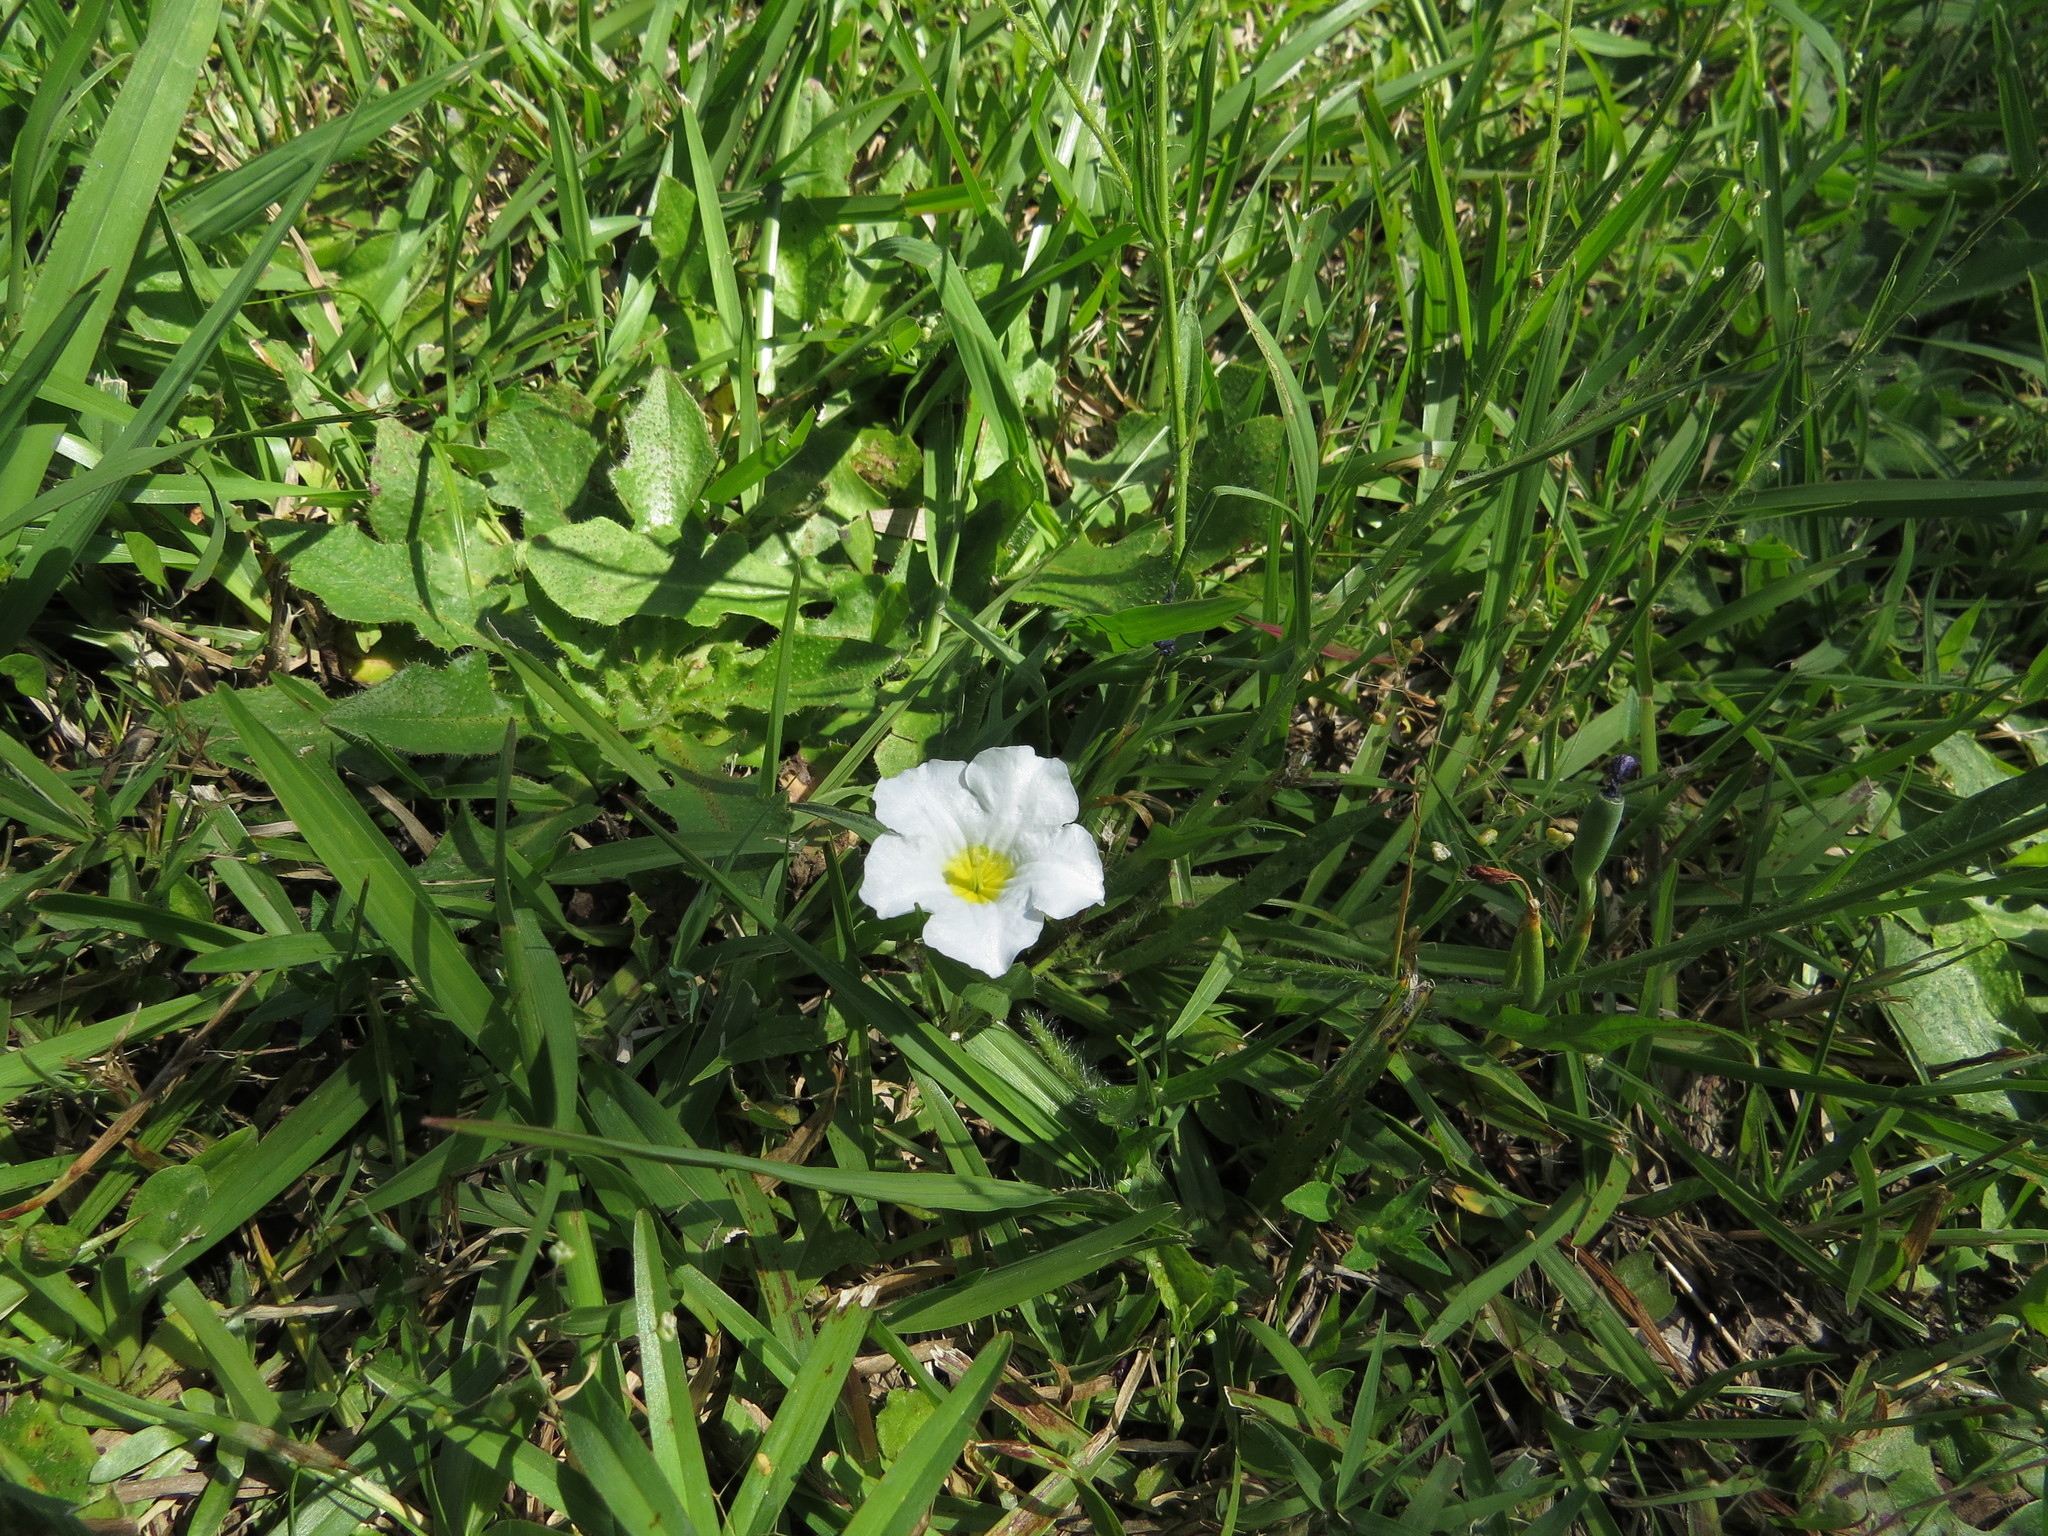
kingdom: Plantae
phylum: Tracheophyta
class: Magnoliopsida
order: Solanales
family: Solanaceae
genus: Nierembergia
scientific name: Nierembergia rivularis
